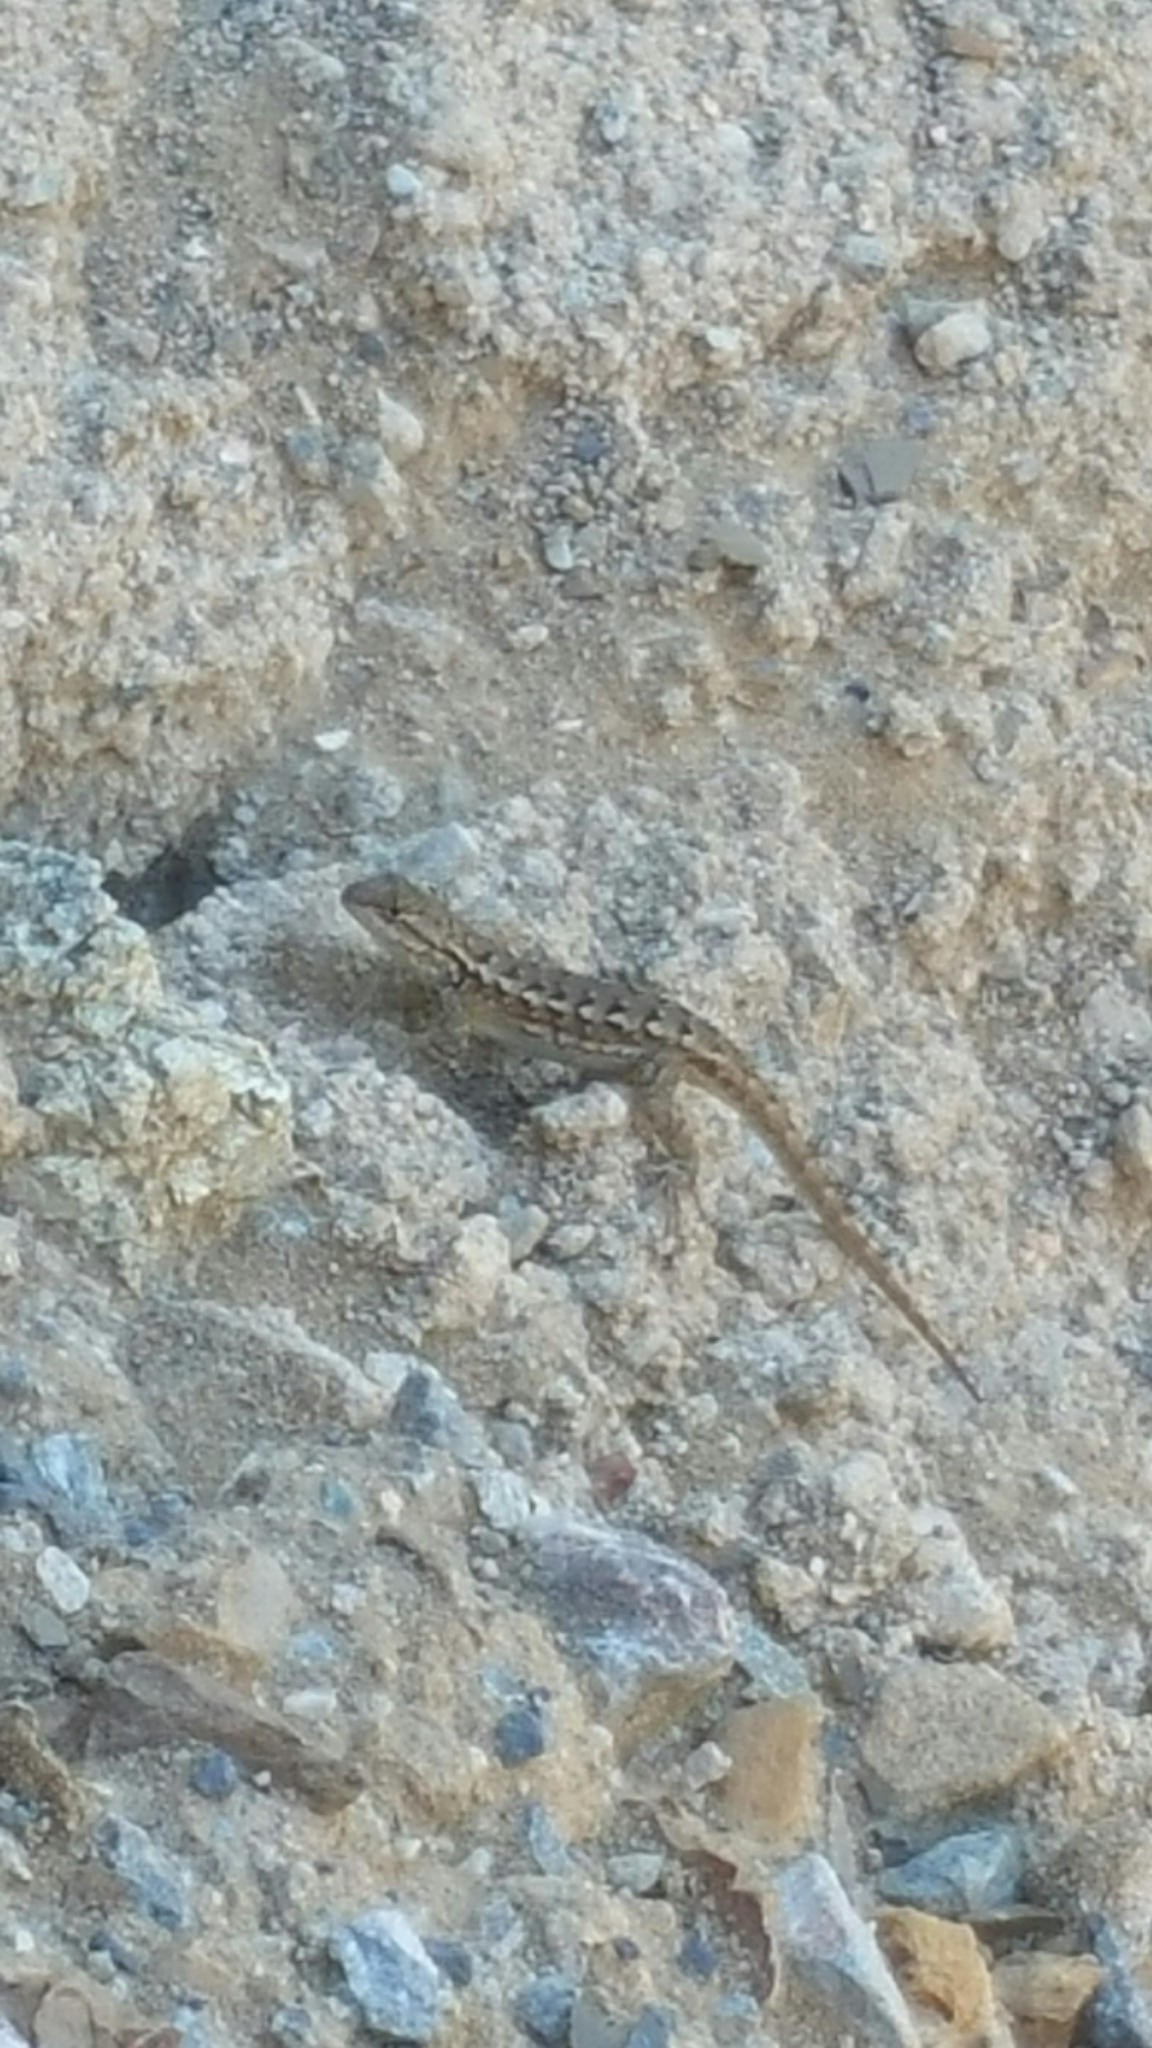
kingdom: Animalia
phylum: Chordata
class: Squamata
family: Phrynosomatidae
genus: Sceloporus
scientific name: Sceloporus occidentalis
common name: Western fence lizard
